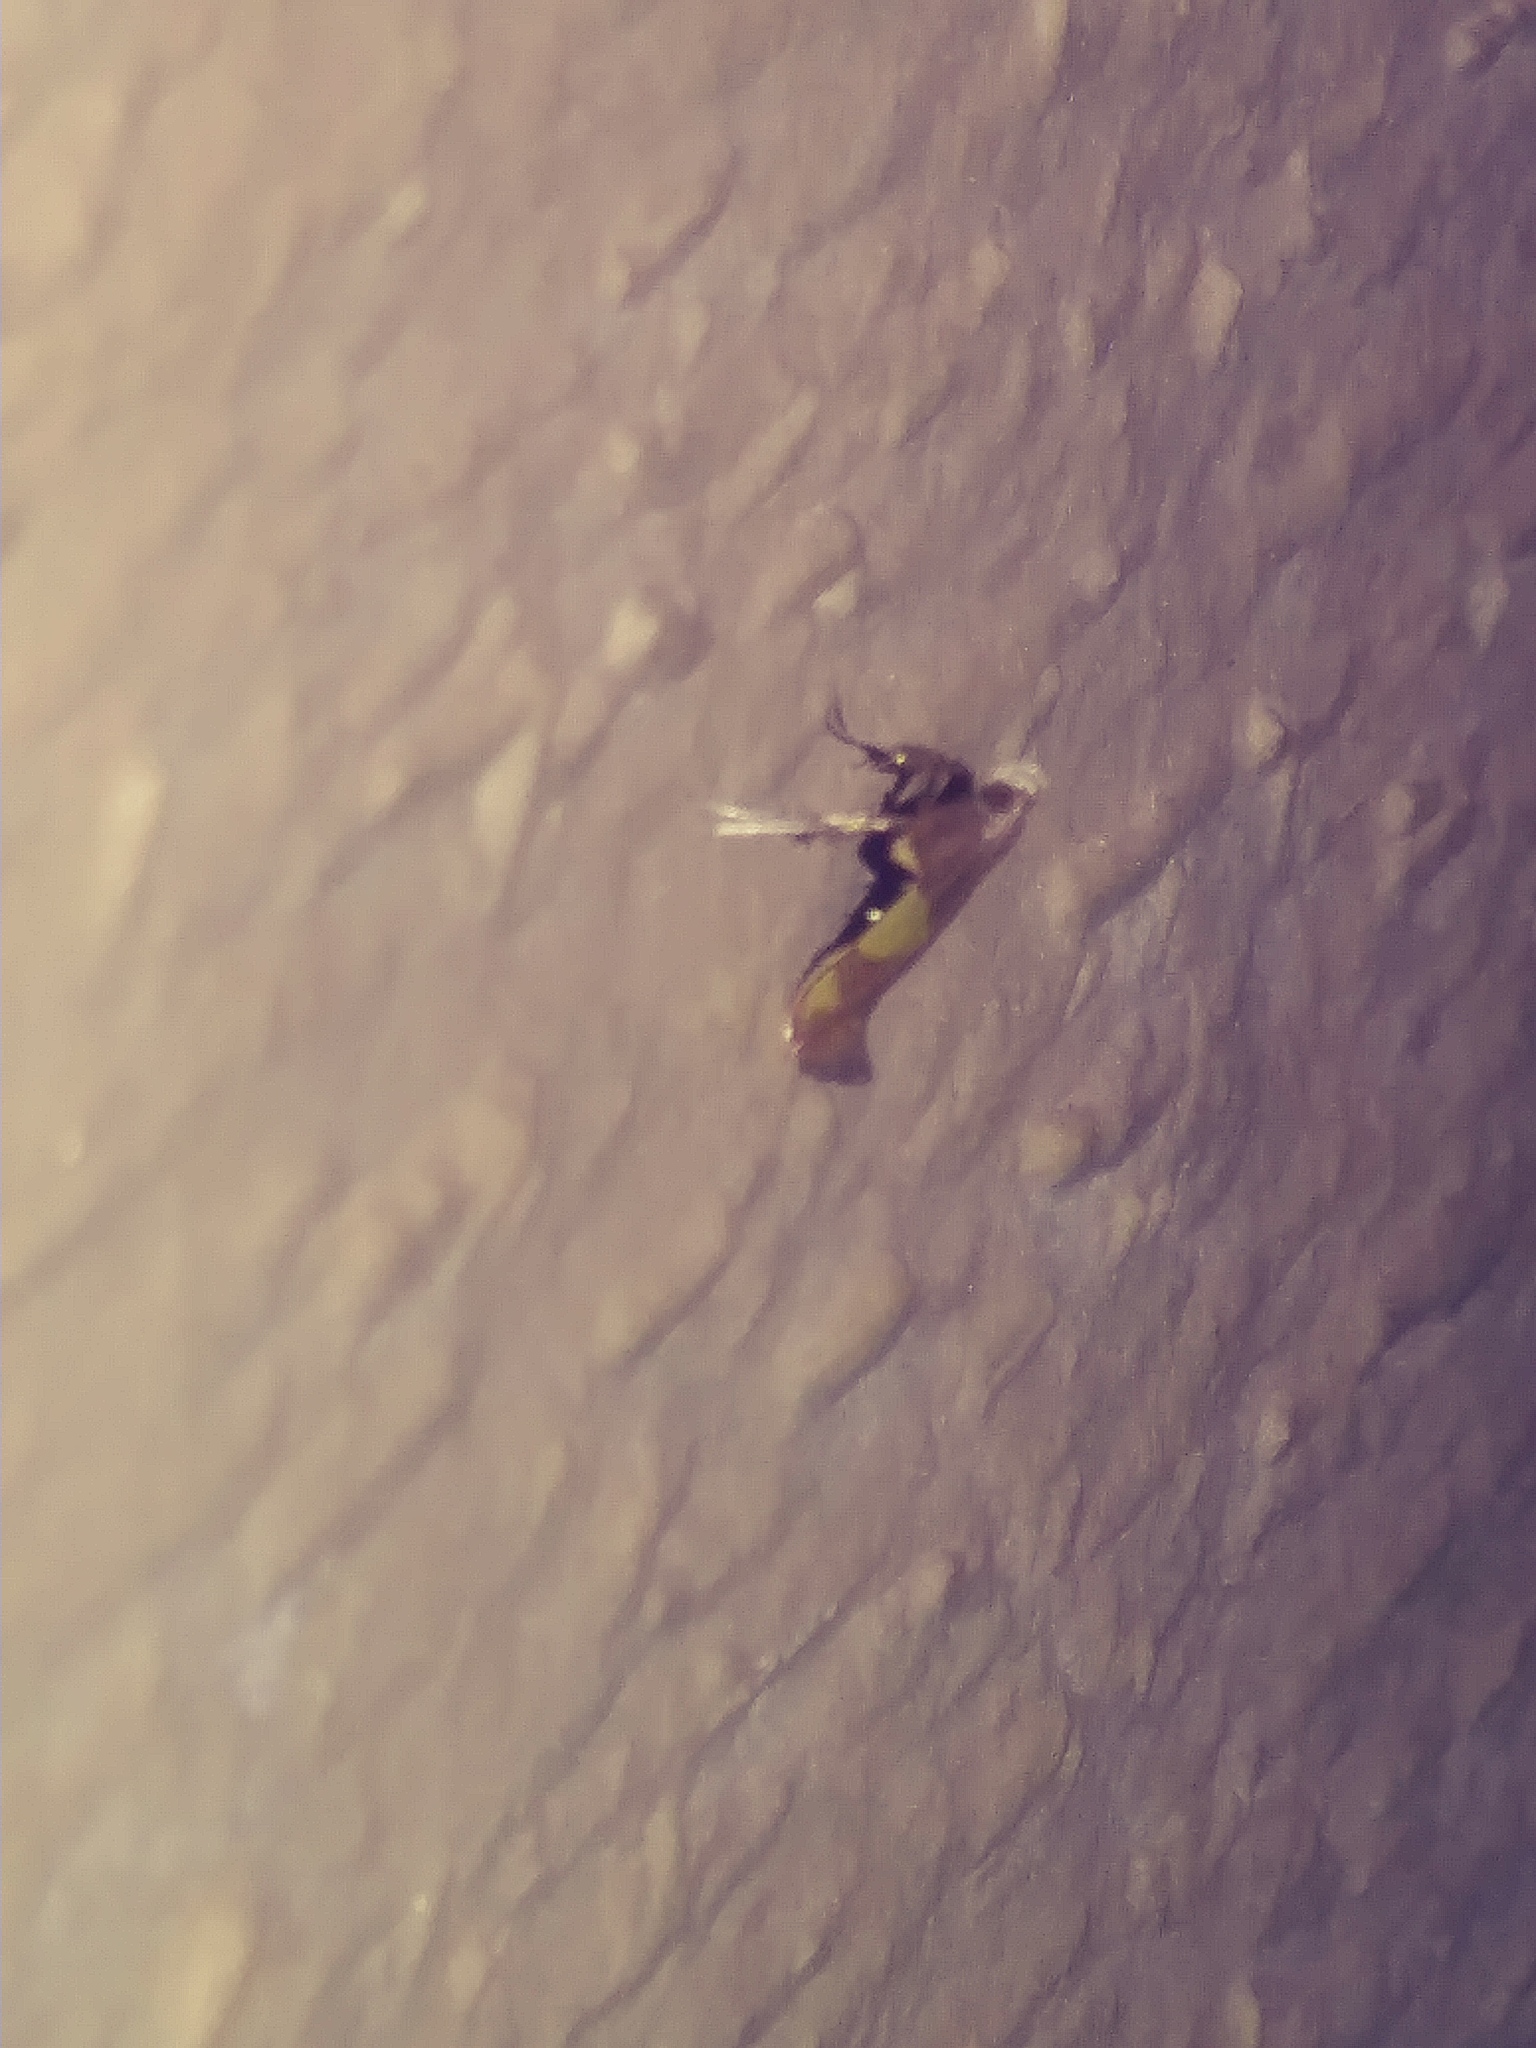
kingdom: Animalia
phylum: Arthropoda
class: Insecta
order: Lepidoptera
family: Gracillariidae
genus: Caloptilia
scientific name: Caloptilia bimaculatella
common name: Maple caloptilia moth
